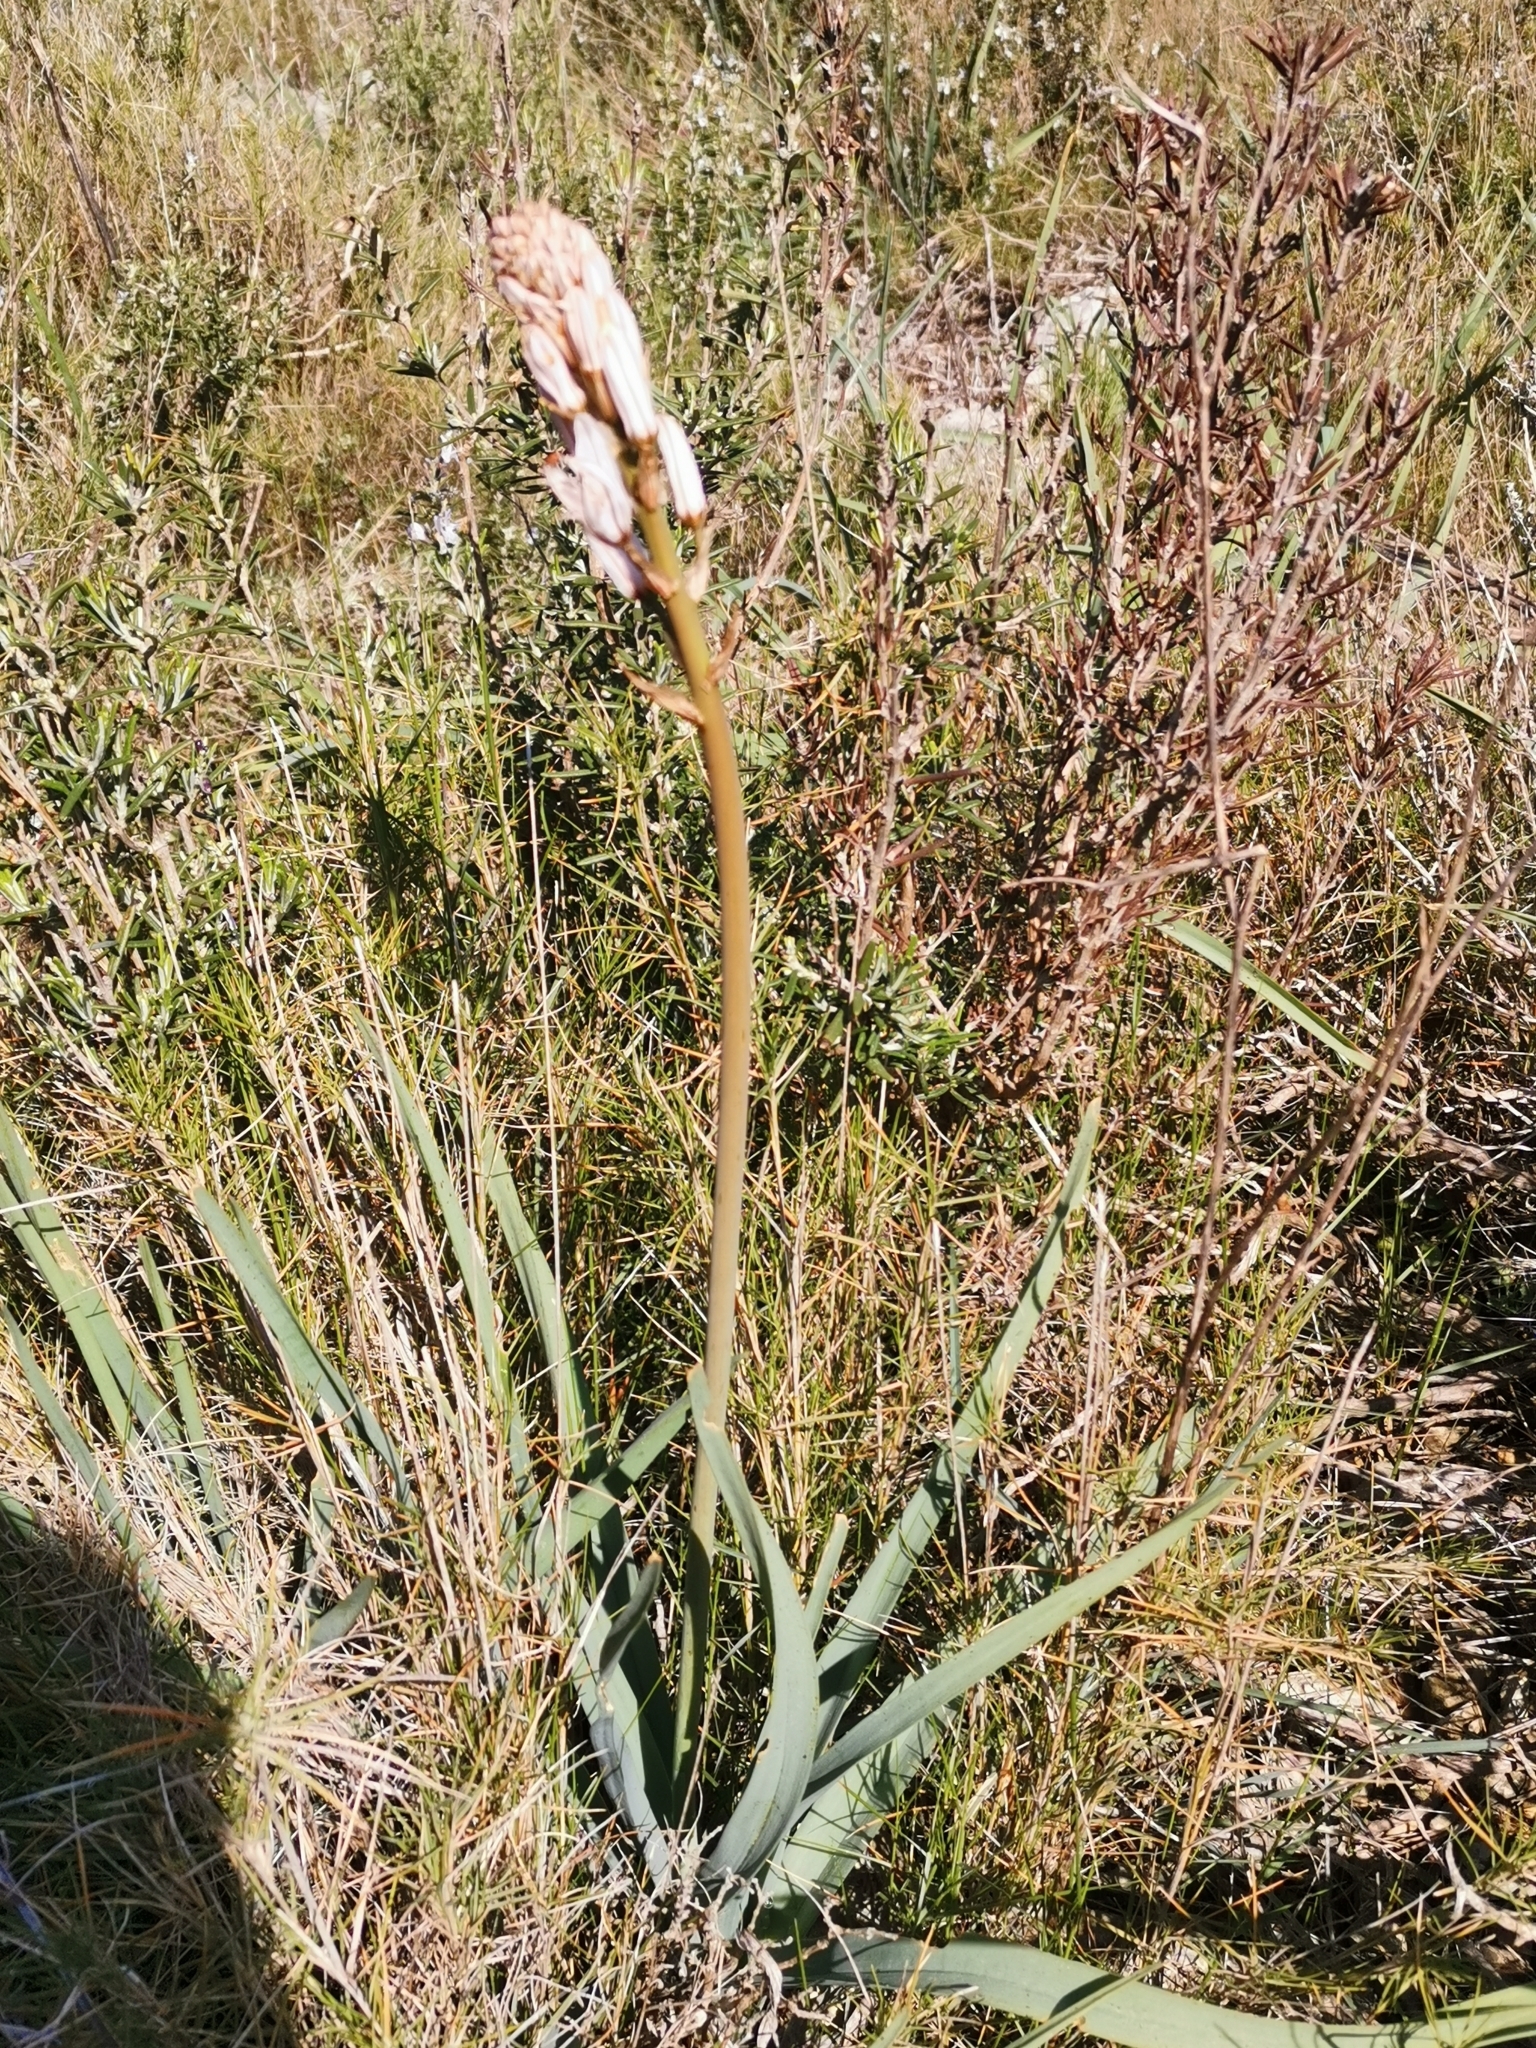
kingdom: Plantae
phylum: Tracheophyta
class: Liliopsida
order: Asparagales
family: Asphodelaceae
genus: Asphodelus
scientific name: Asphodelus albus
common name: White asphodel
